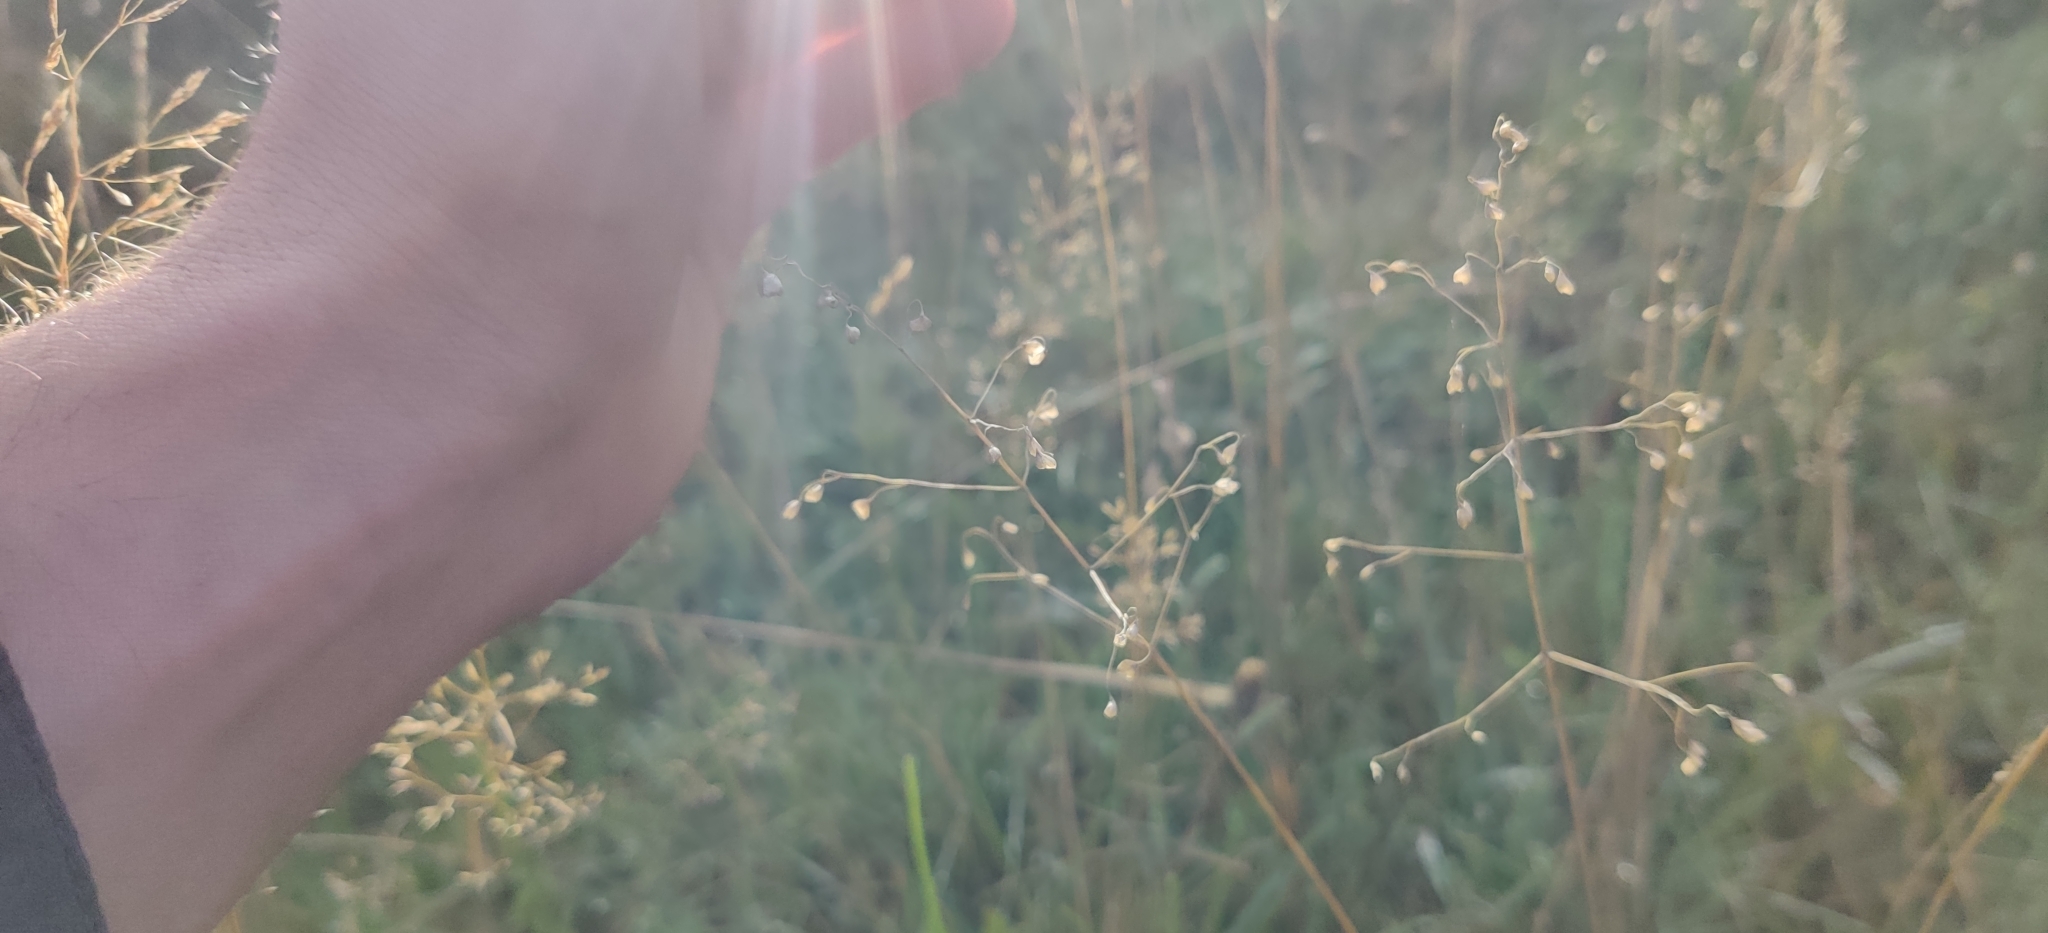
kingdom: Plantae
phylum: Tracheophyta
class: Liliopsida
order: Poales
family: Poaceae
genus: Briza
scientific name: Briza media
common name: Quaking grass
